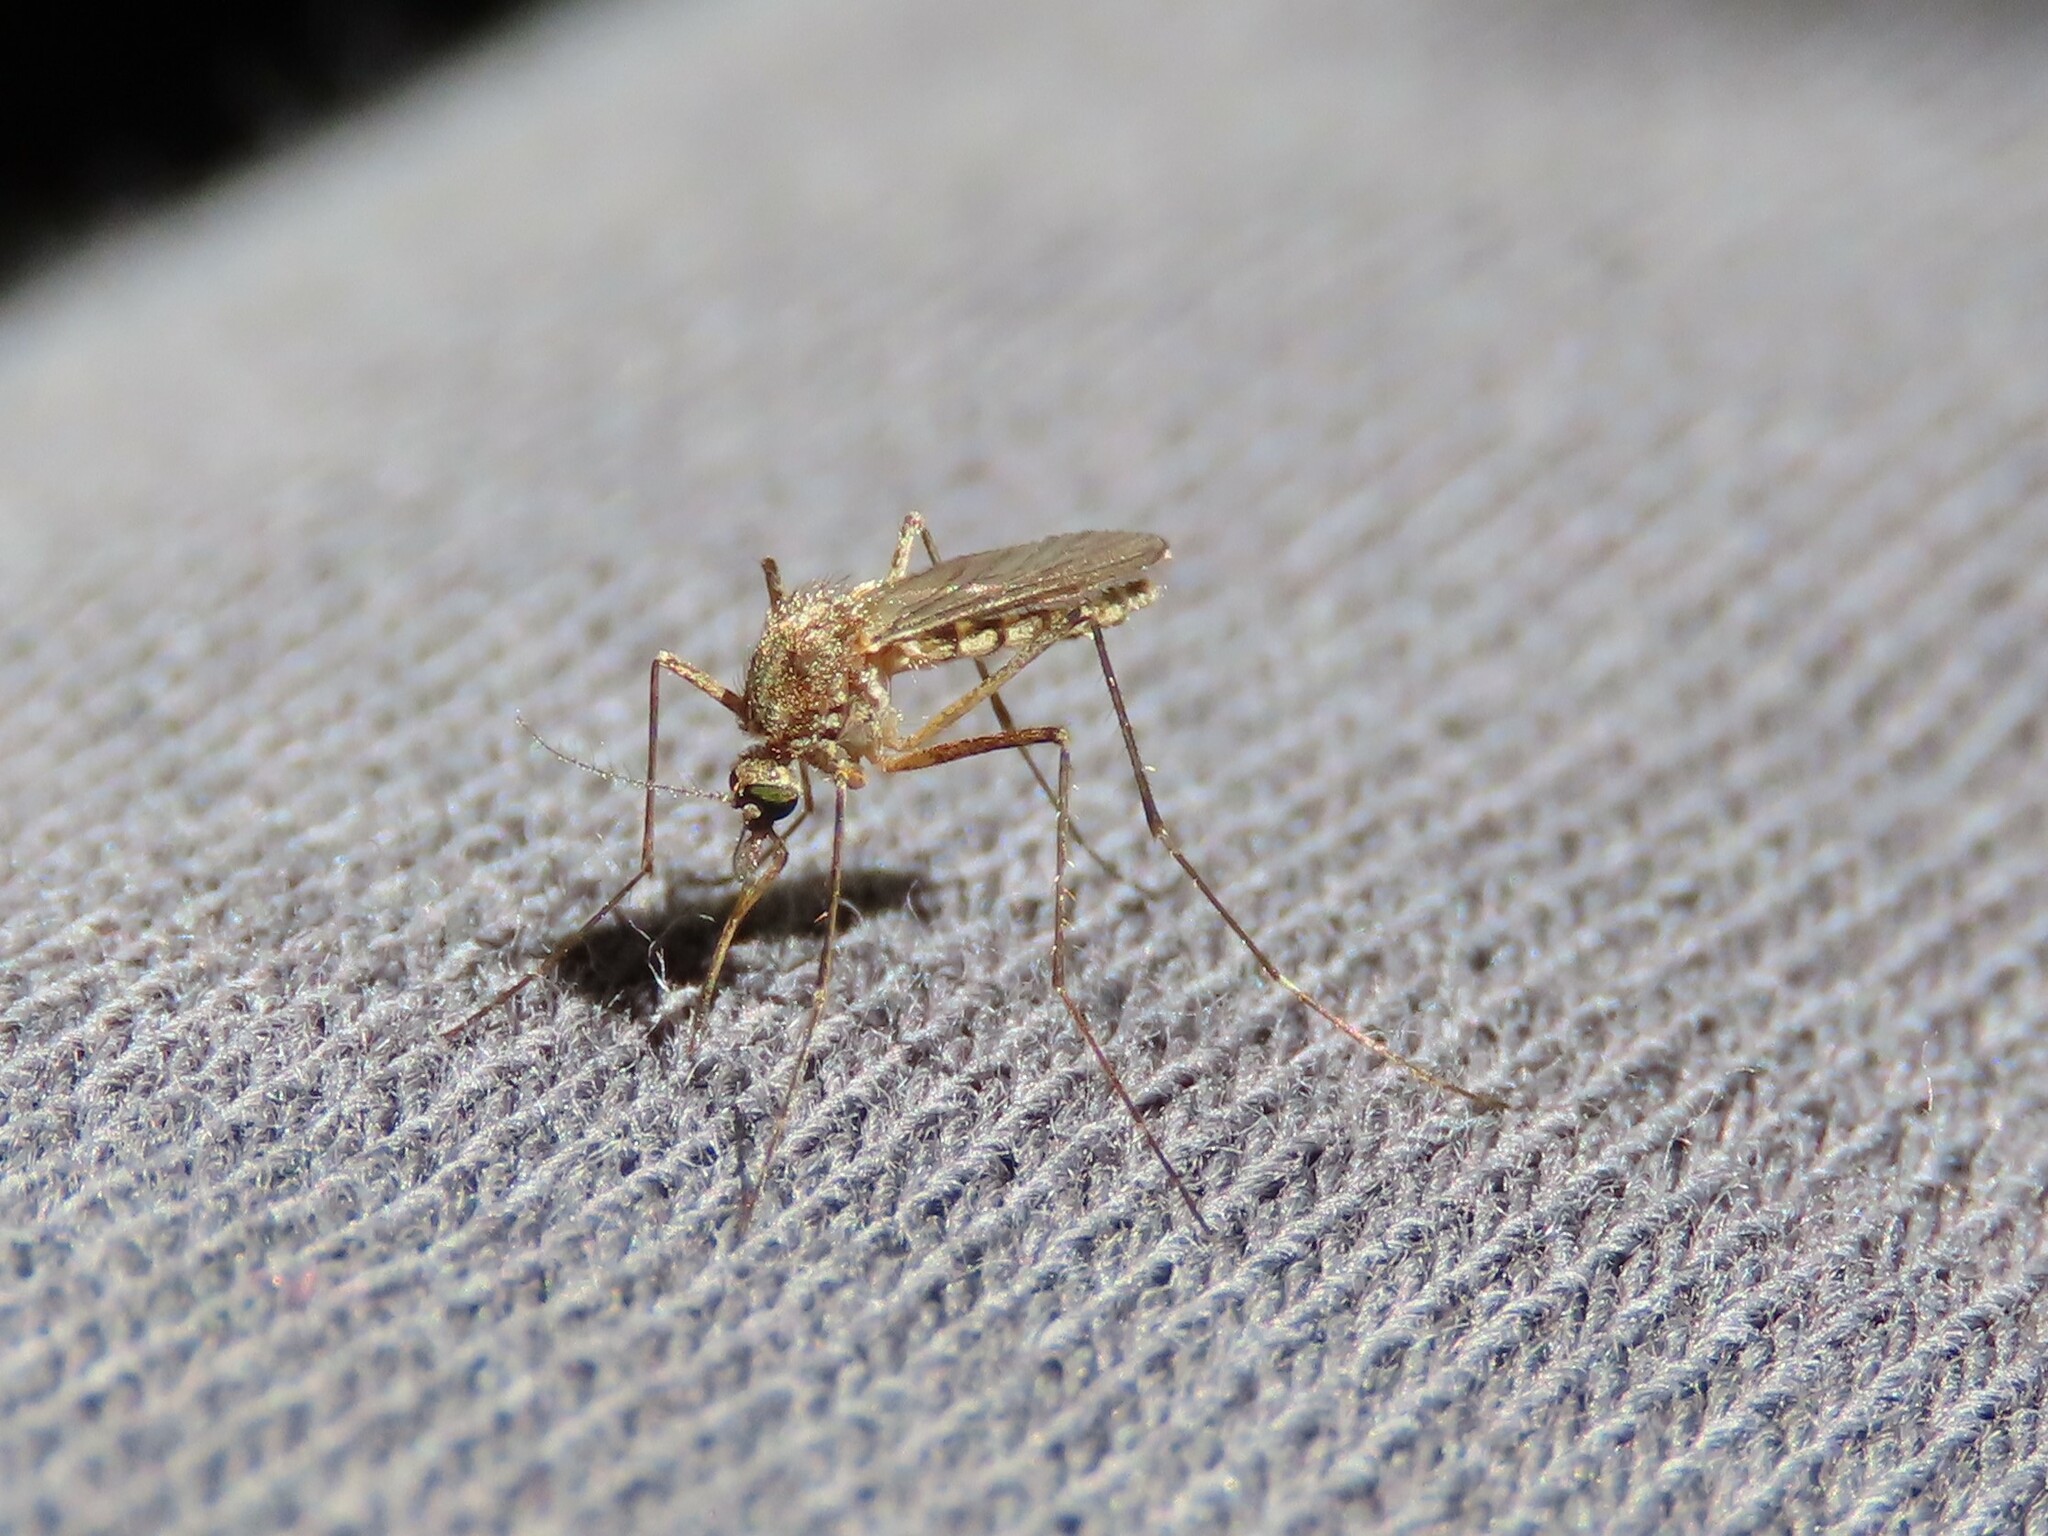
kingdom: Animalia
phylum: Arthropoda
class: Insecta
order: Diptera
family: Culicidae
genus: Aedes
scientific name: Aedes vexans
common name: Inland floodwater mosquito
